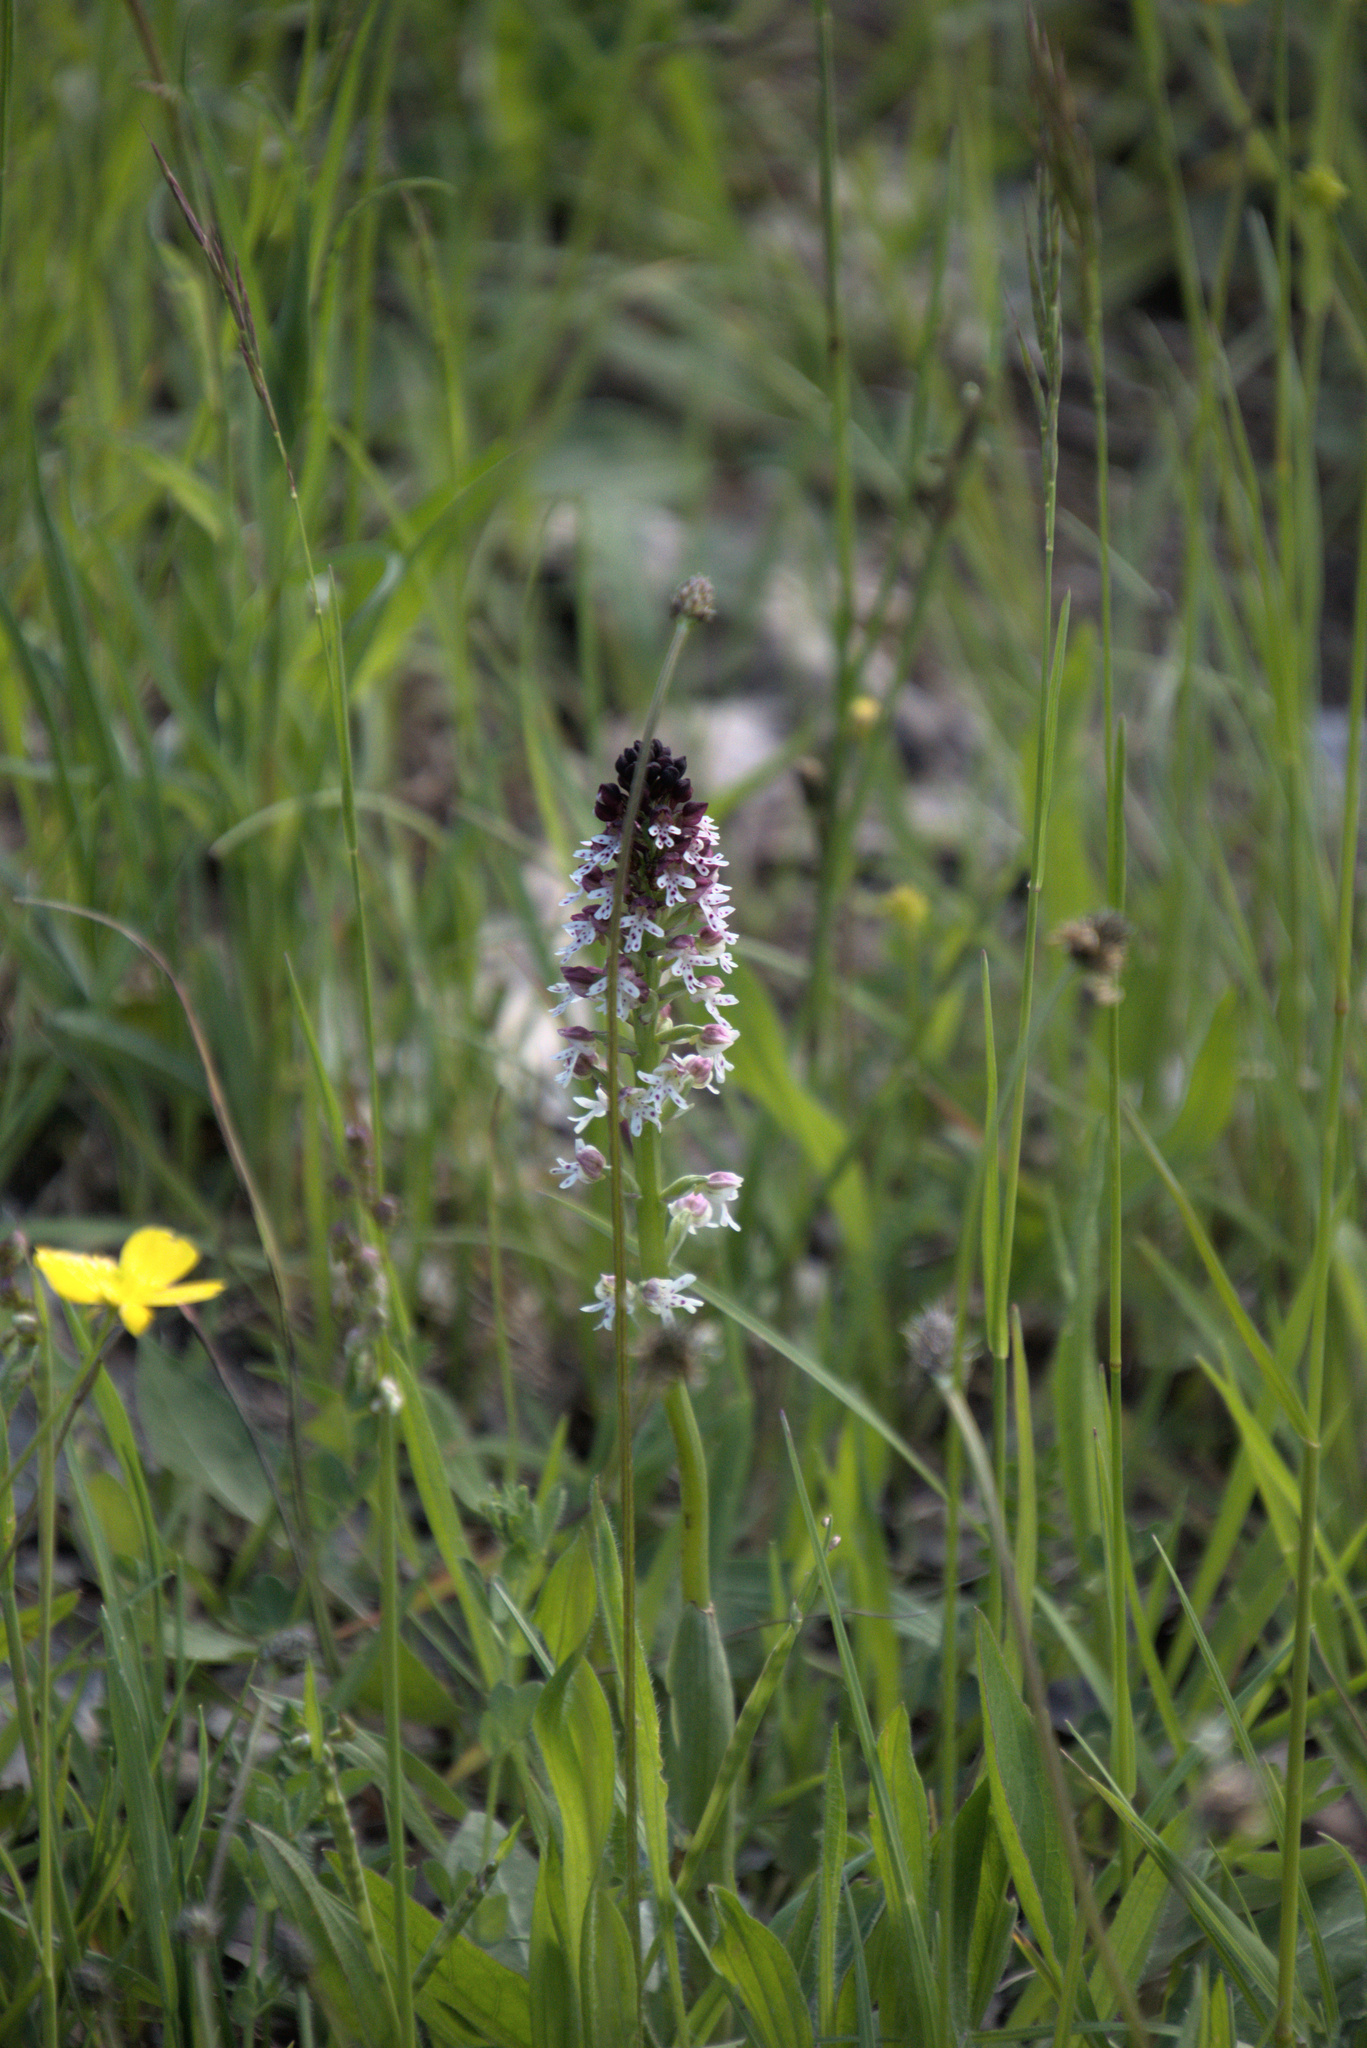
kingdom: Plantae
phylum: Tracheophyta
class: Liliopsida
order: Asparagales
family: Orchidaceae
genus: Neotinea
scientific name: Neotinea ustulata
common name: Burnt orchid
